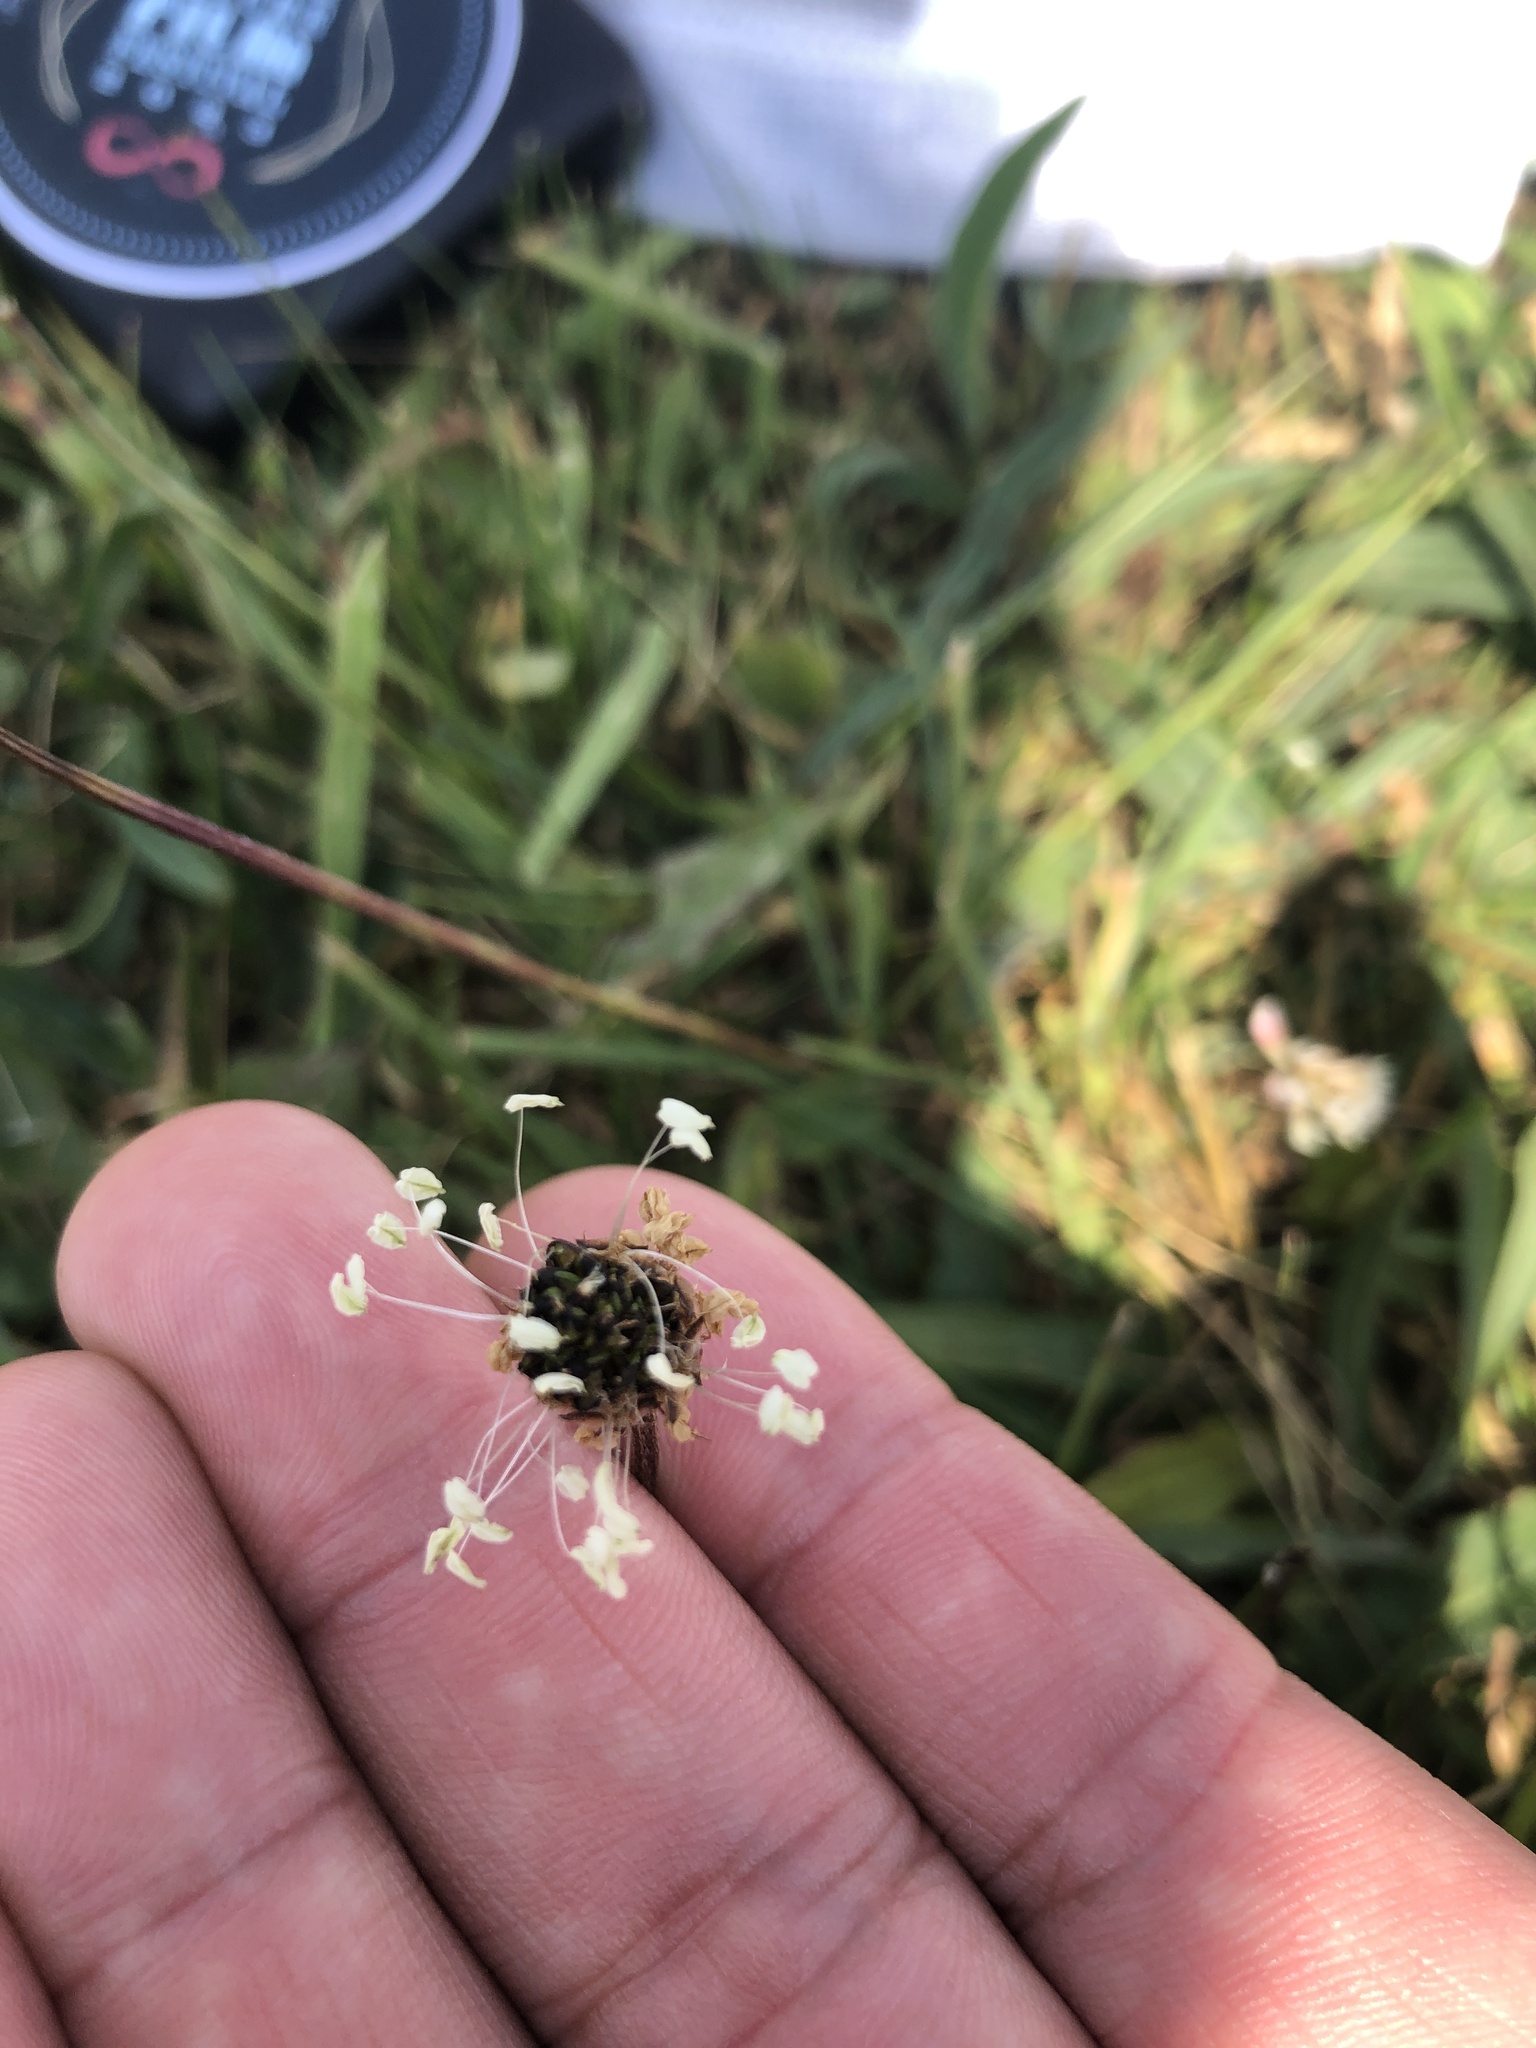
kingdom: Plantae
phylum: Tracheophyta
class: Magnoliopsida
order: Lamiales
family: Plantaginaceae
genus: Plantago
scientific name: Plantago lanceolata
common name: Ribwort plantain
